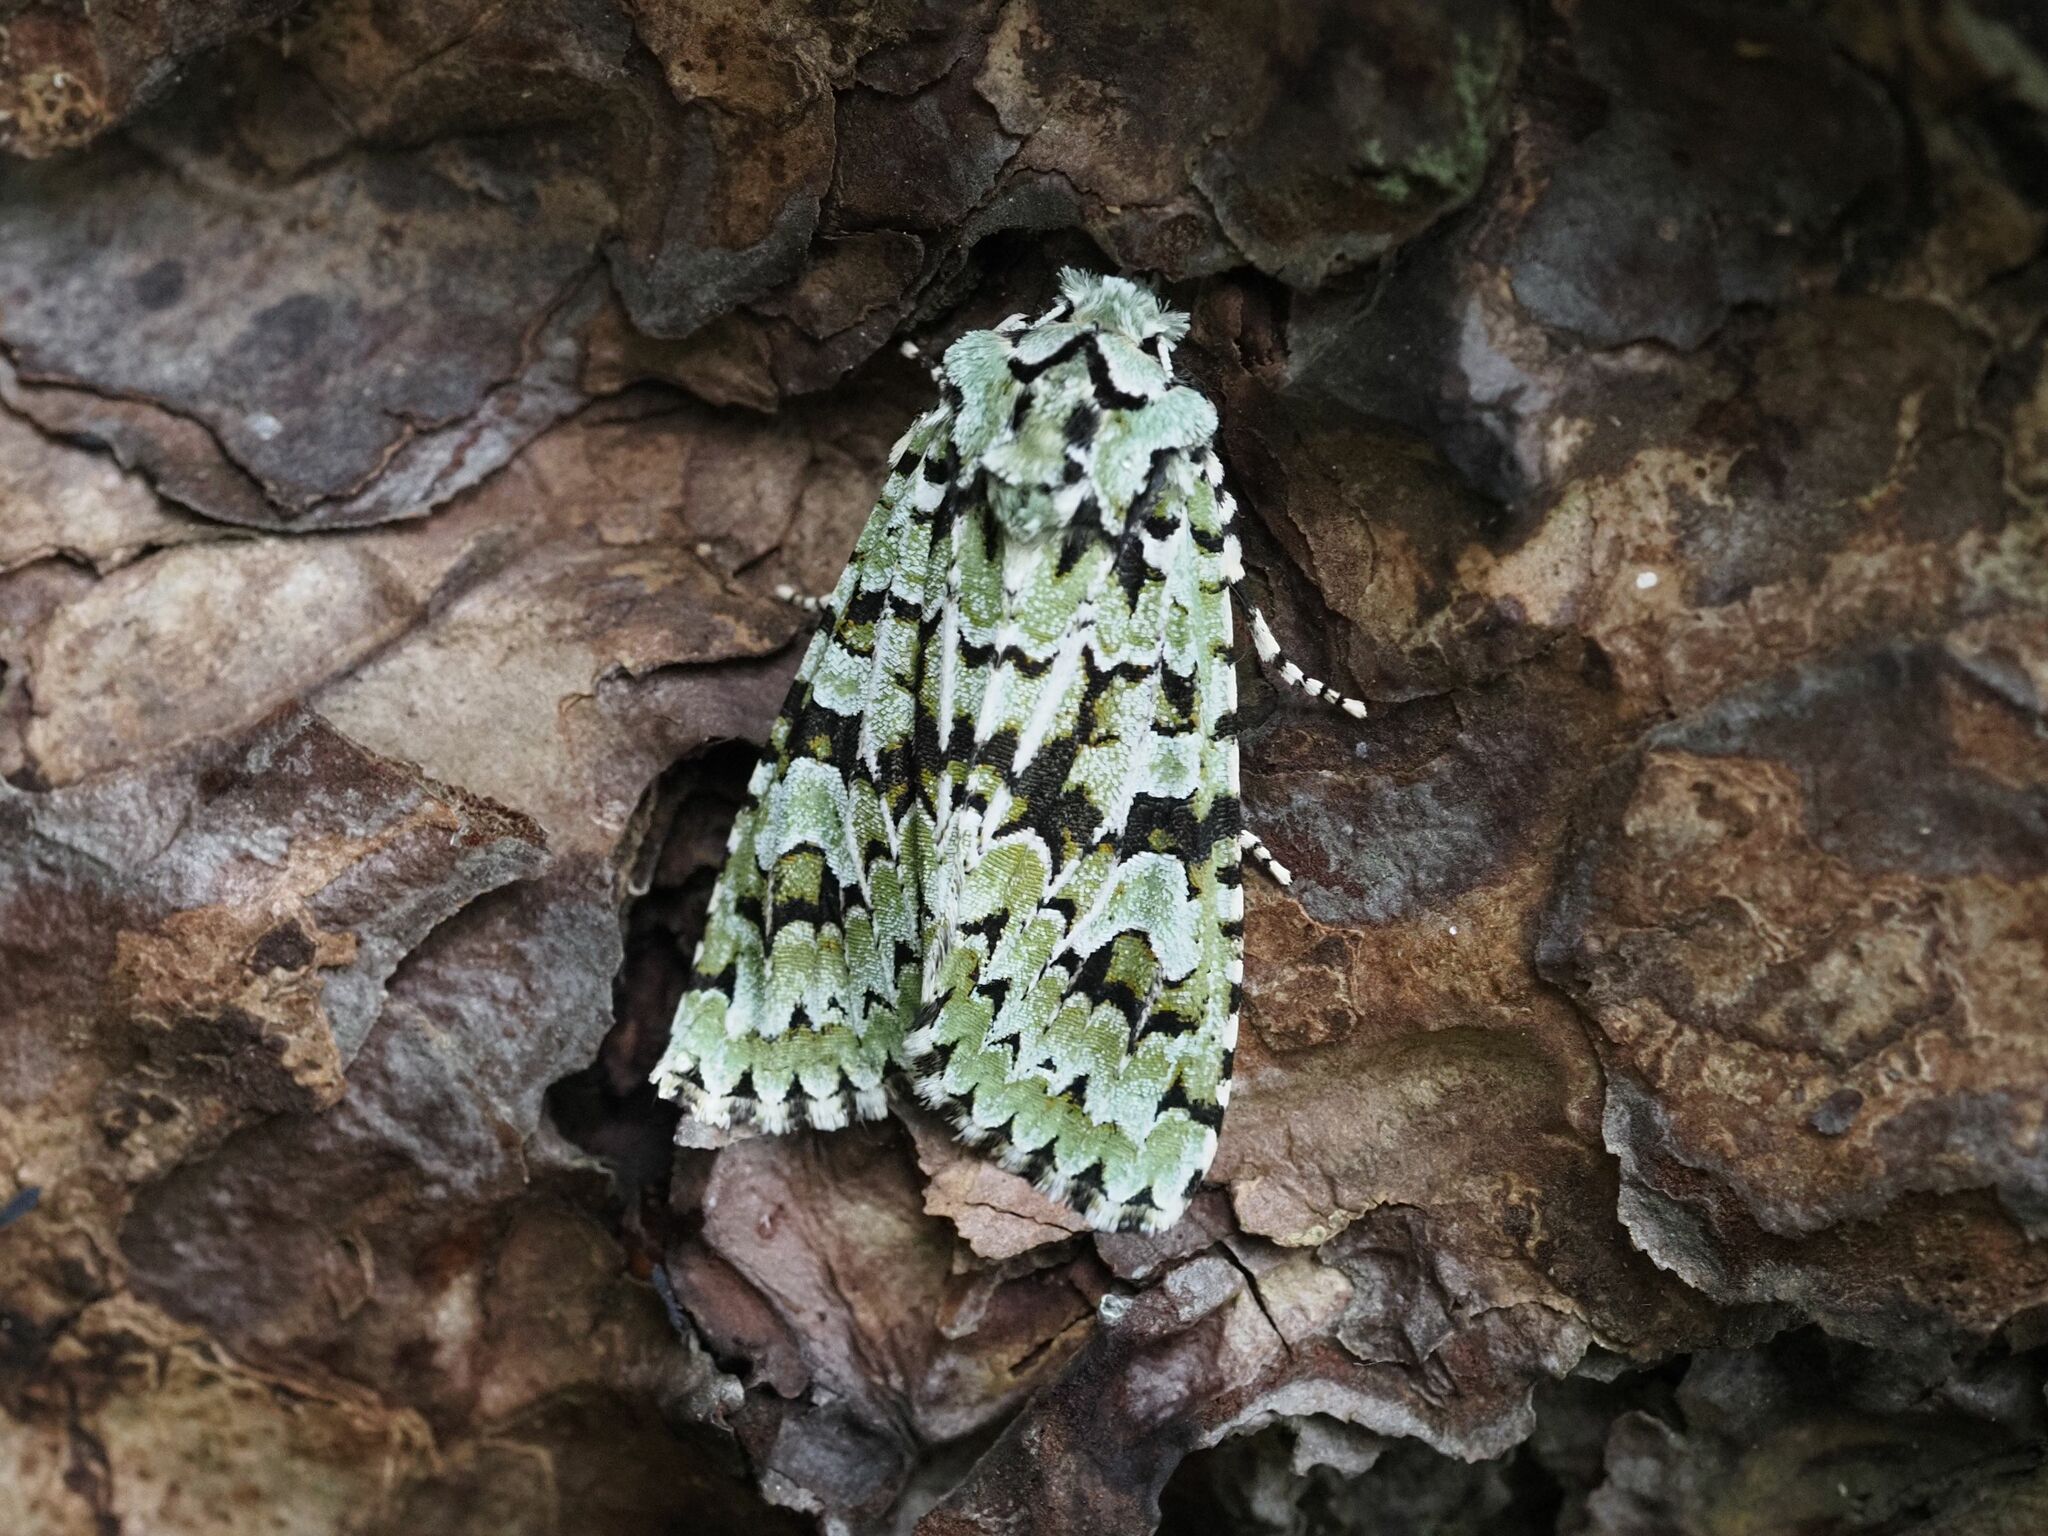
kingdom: Animalia
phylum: Arthropoda
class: Insecta
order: Lepidoptera
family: Noctuidae
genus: Griposia
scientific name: Griposia aprilina
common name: Merveille du jour
